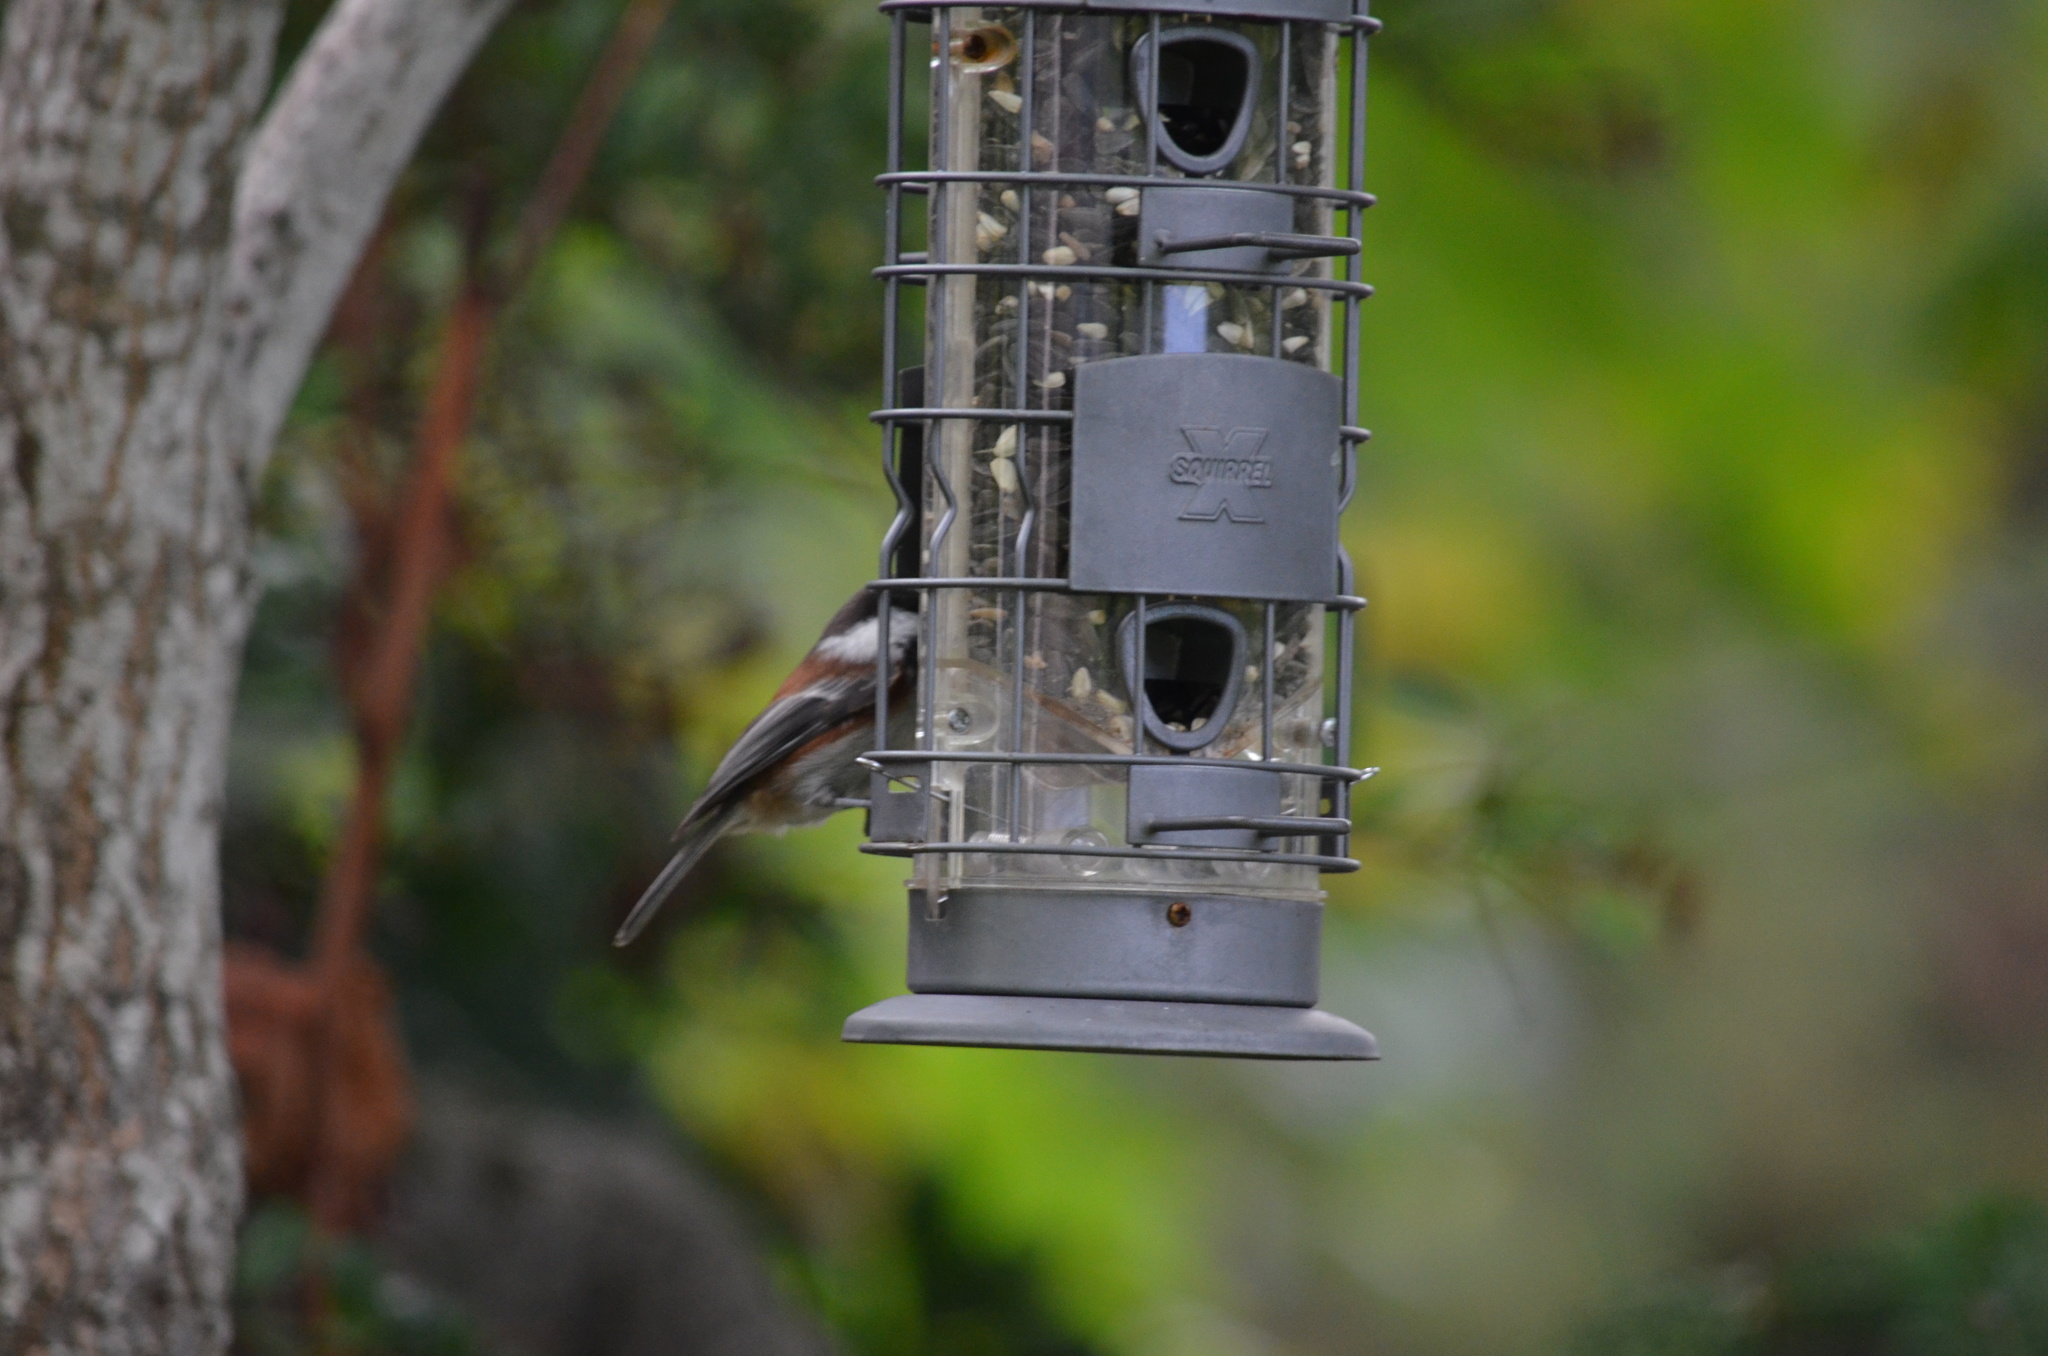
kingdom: Animalia
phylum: Chordata
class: Aves
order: Passeriformes
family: Paridae
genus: Poecile
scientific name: Poecile rufescens
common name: Chestnut-backed chickadee
